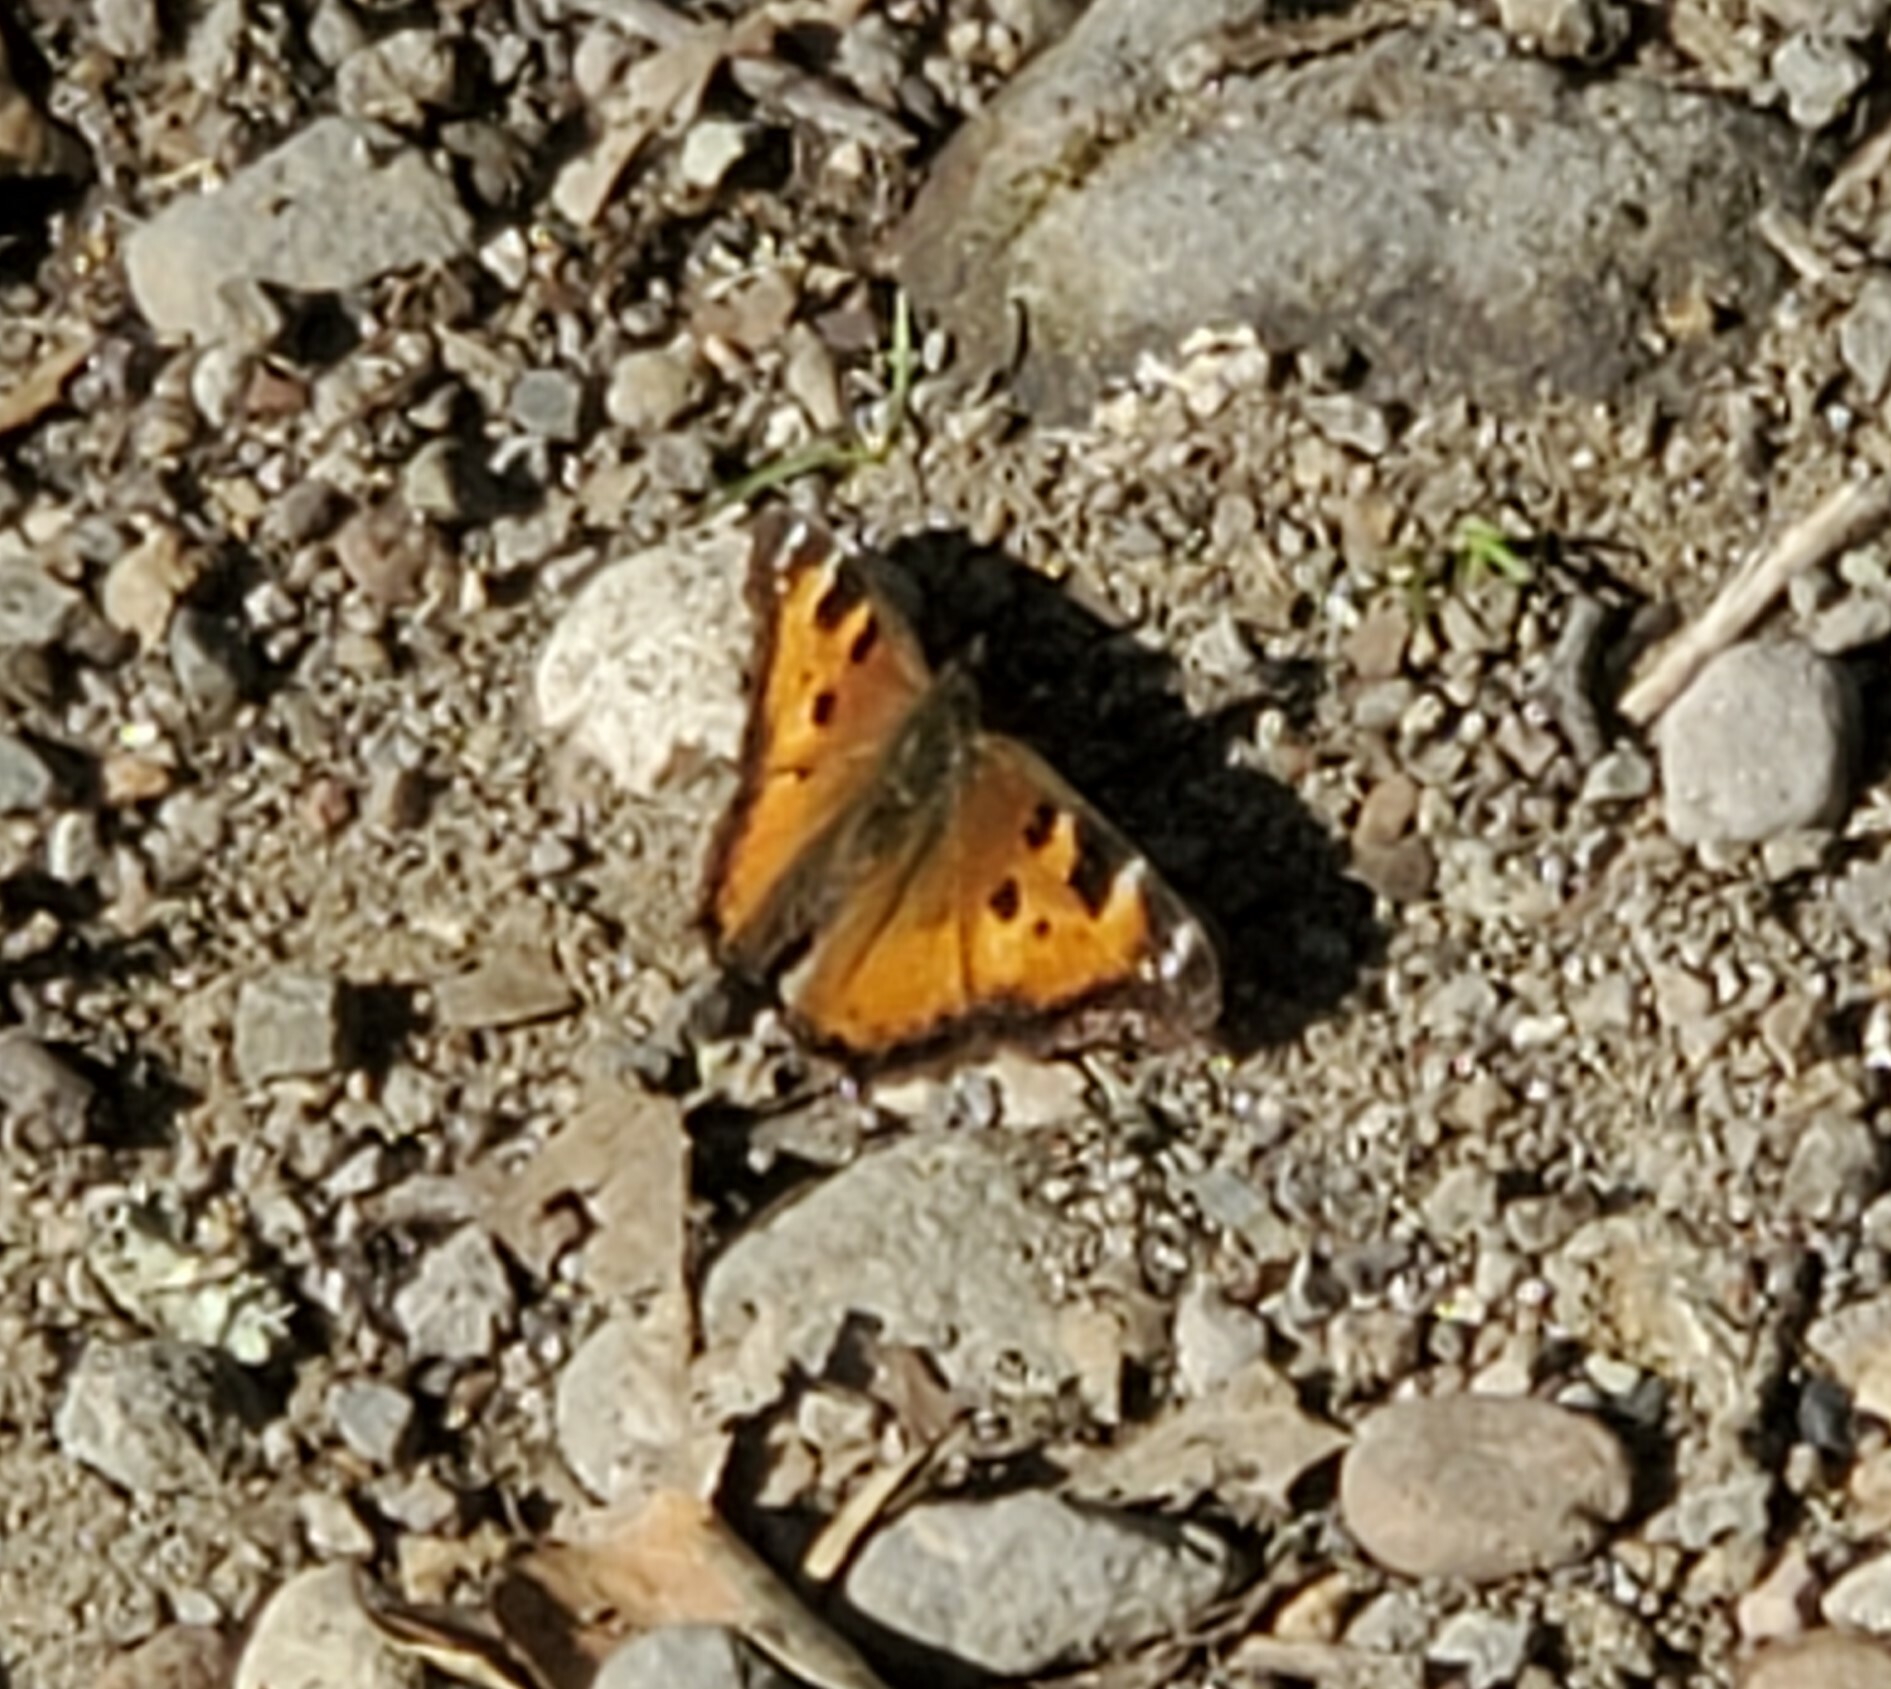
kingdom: Animalia
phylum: Arthropoda
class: Insecta
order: Lepidoptera
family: Nymphalidae
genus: Nymphalis
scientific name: Nymphalis californica
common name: California tortoiseshell
